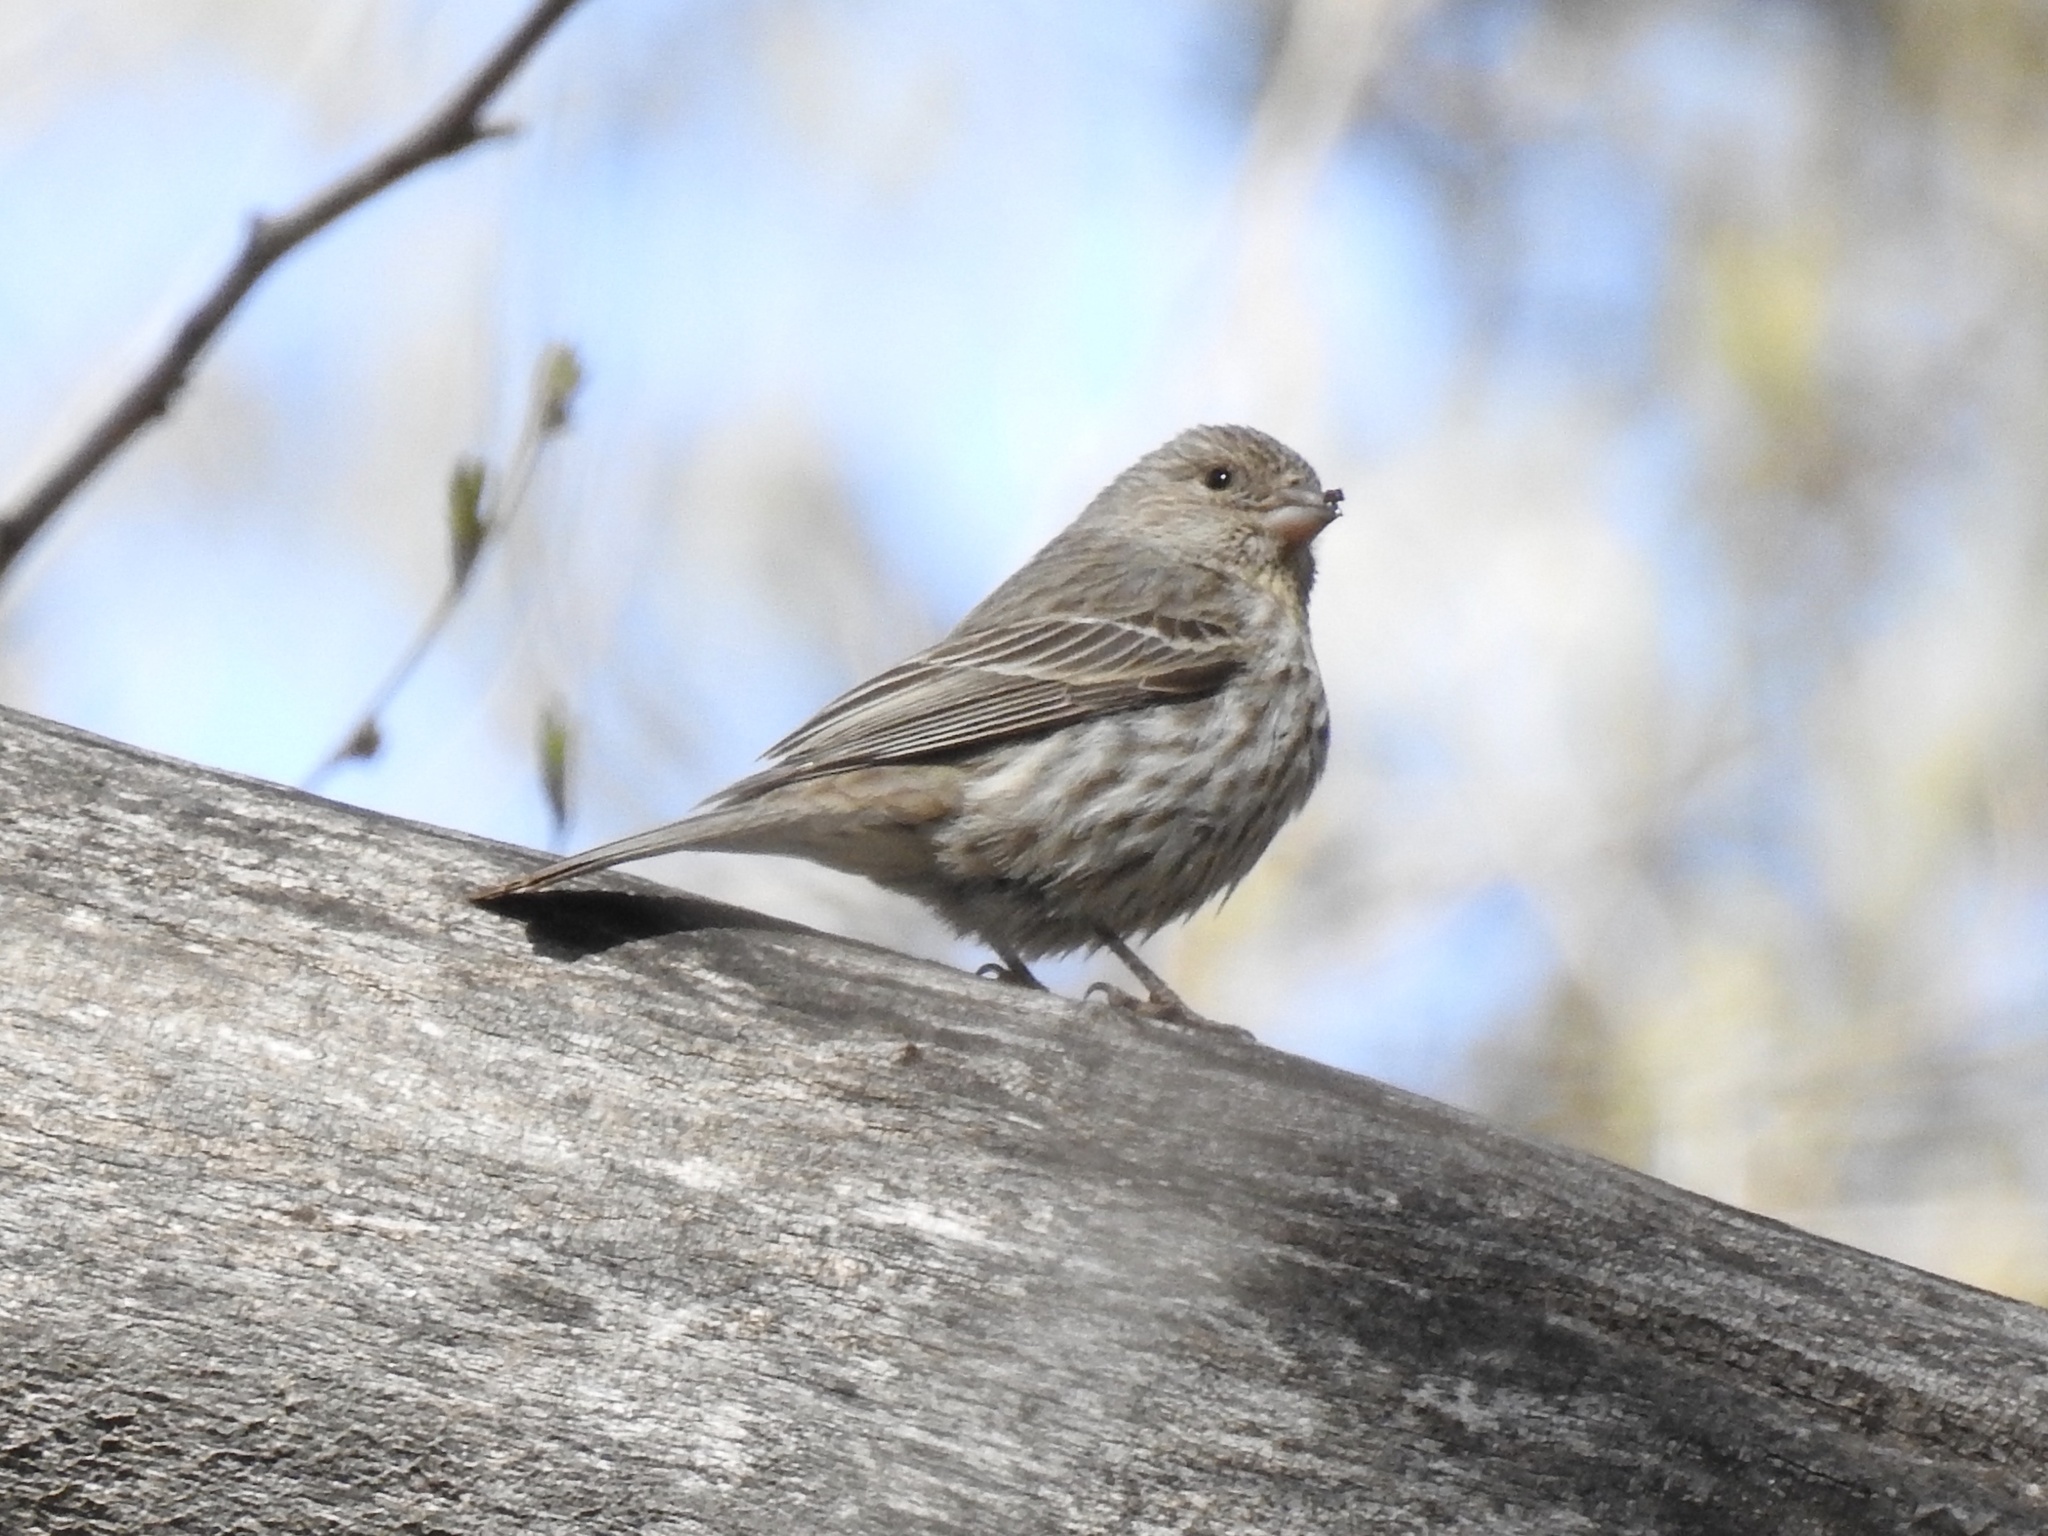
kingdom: Animalia
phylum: Chordata
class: Aves
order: Passeriformes
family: Fringillidae
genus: Haemorhous
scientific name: Haemorhous mexicanus
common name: House finch
